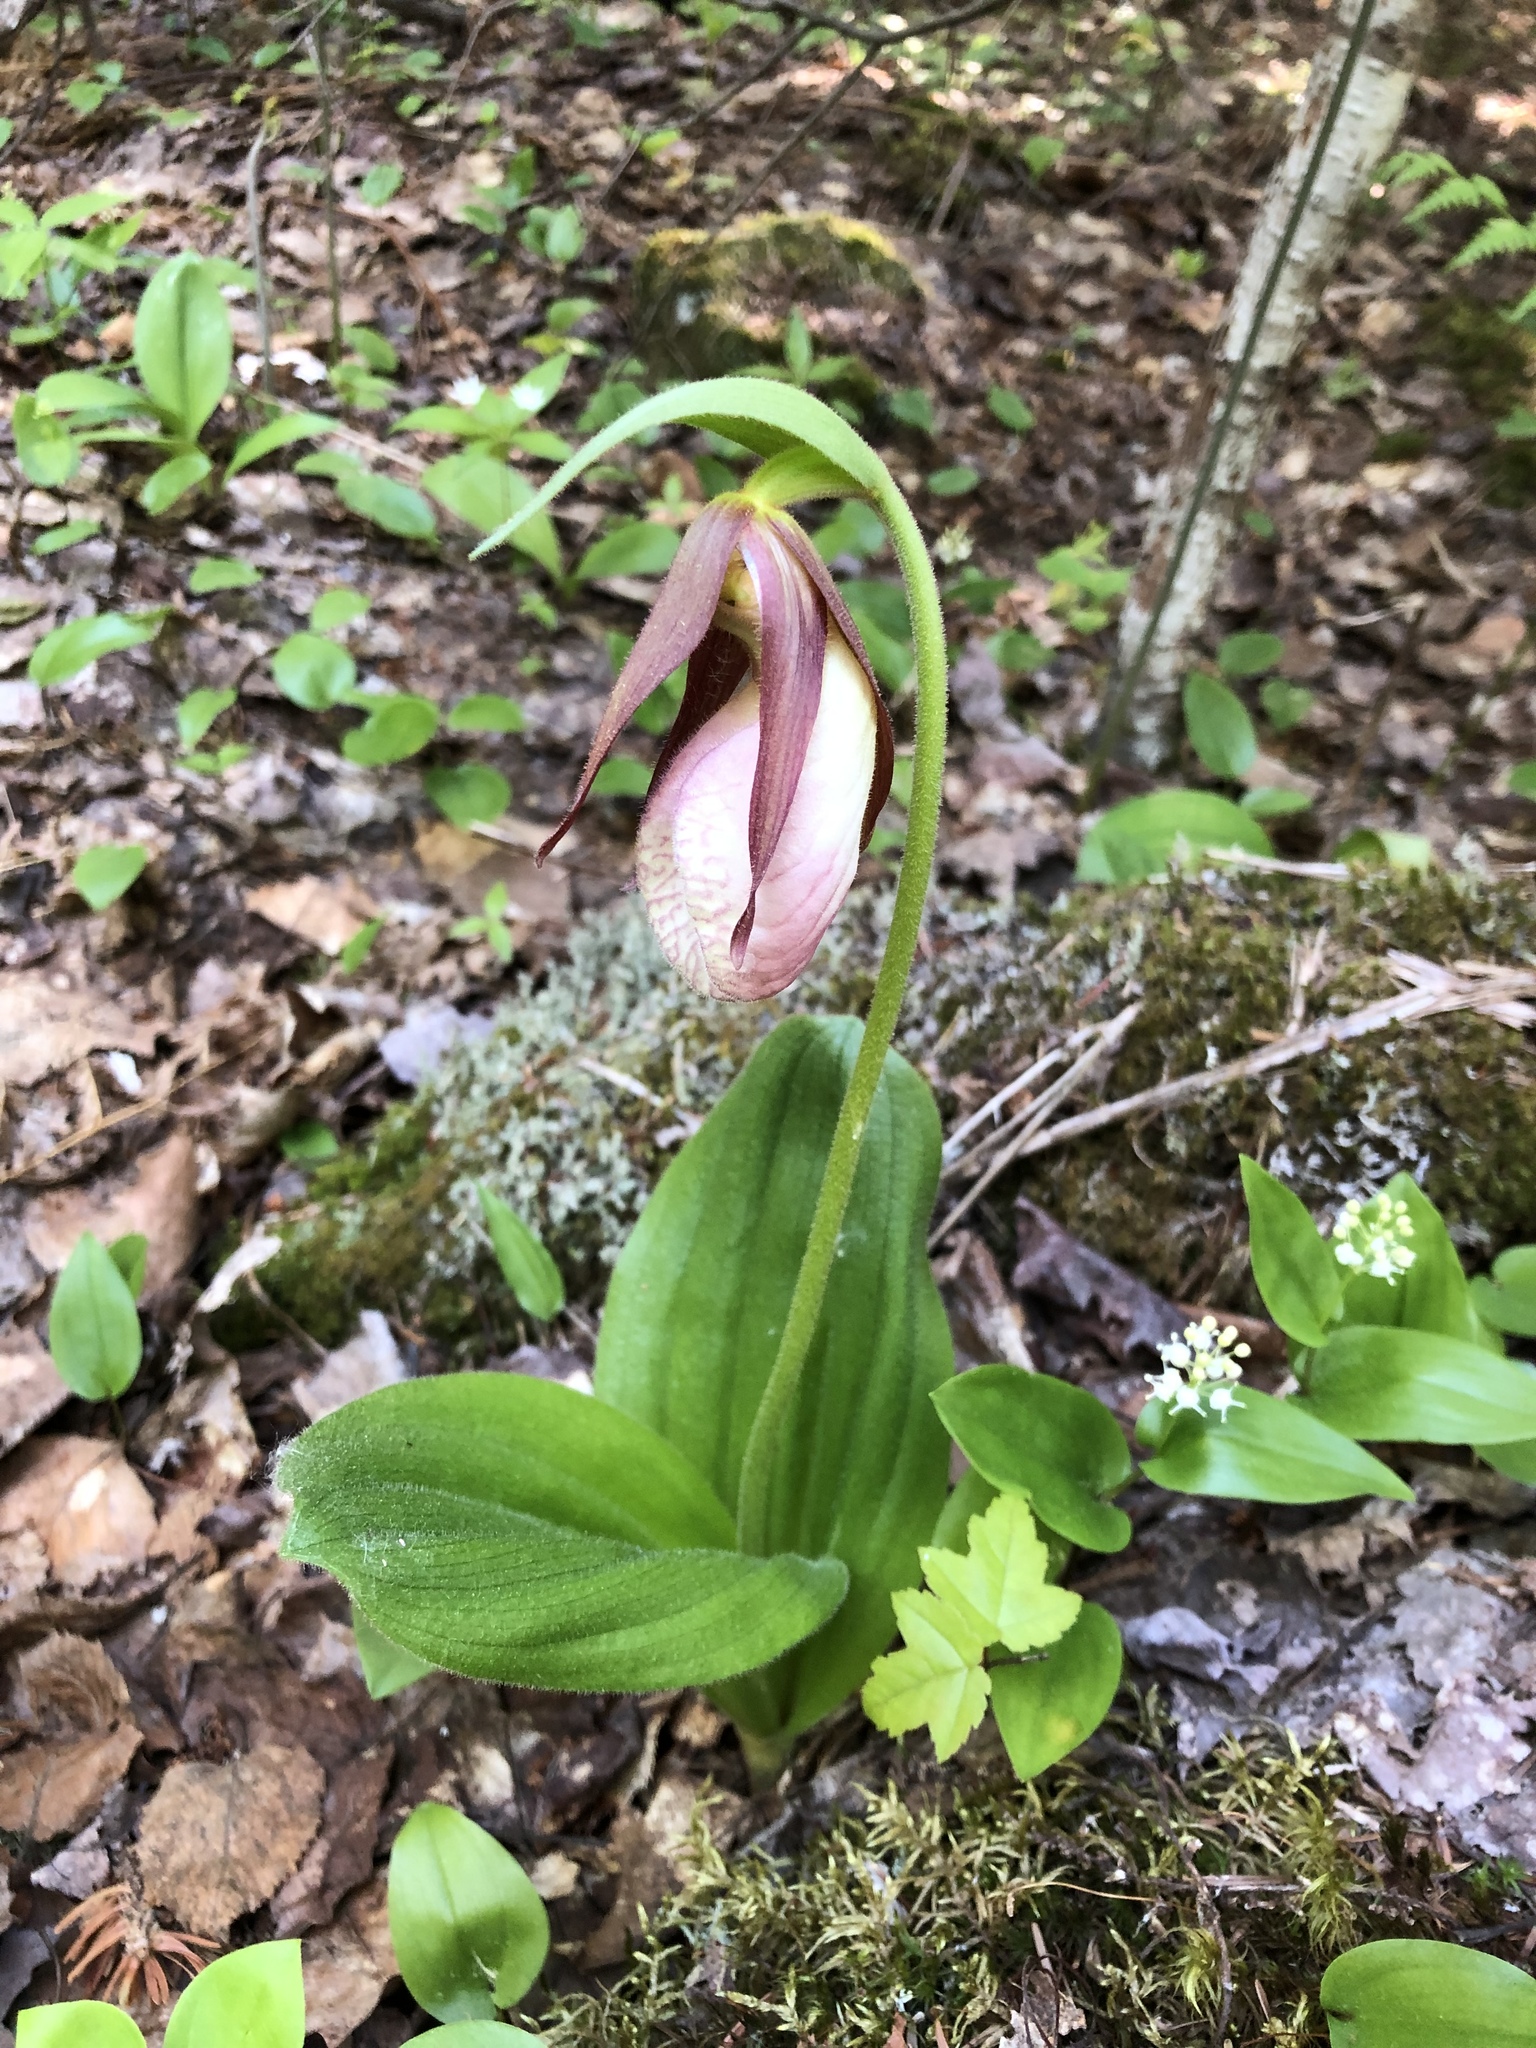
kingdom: Plantae
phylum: Tracheophyta
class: Liliopsida
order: Asparagales
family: Orchidaceae
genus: Cypripedium
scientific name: Cypripedium acaule
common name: Pink lady's-slipper
